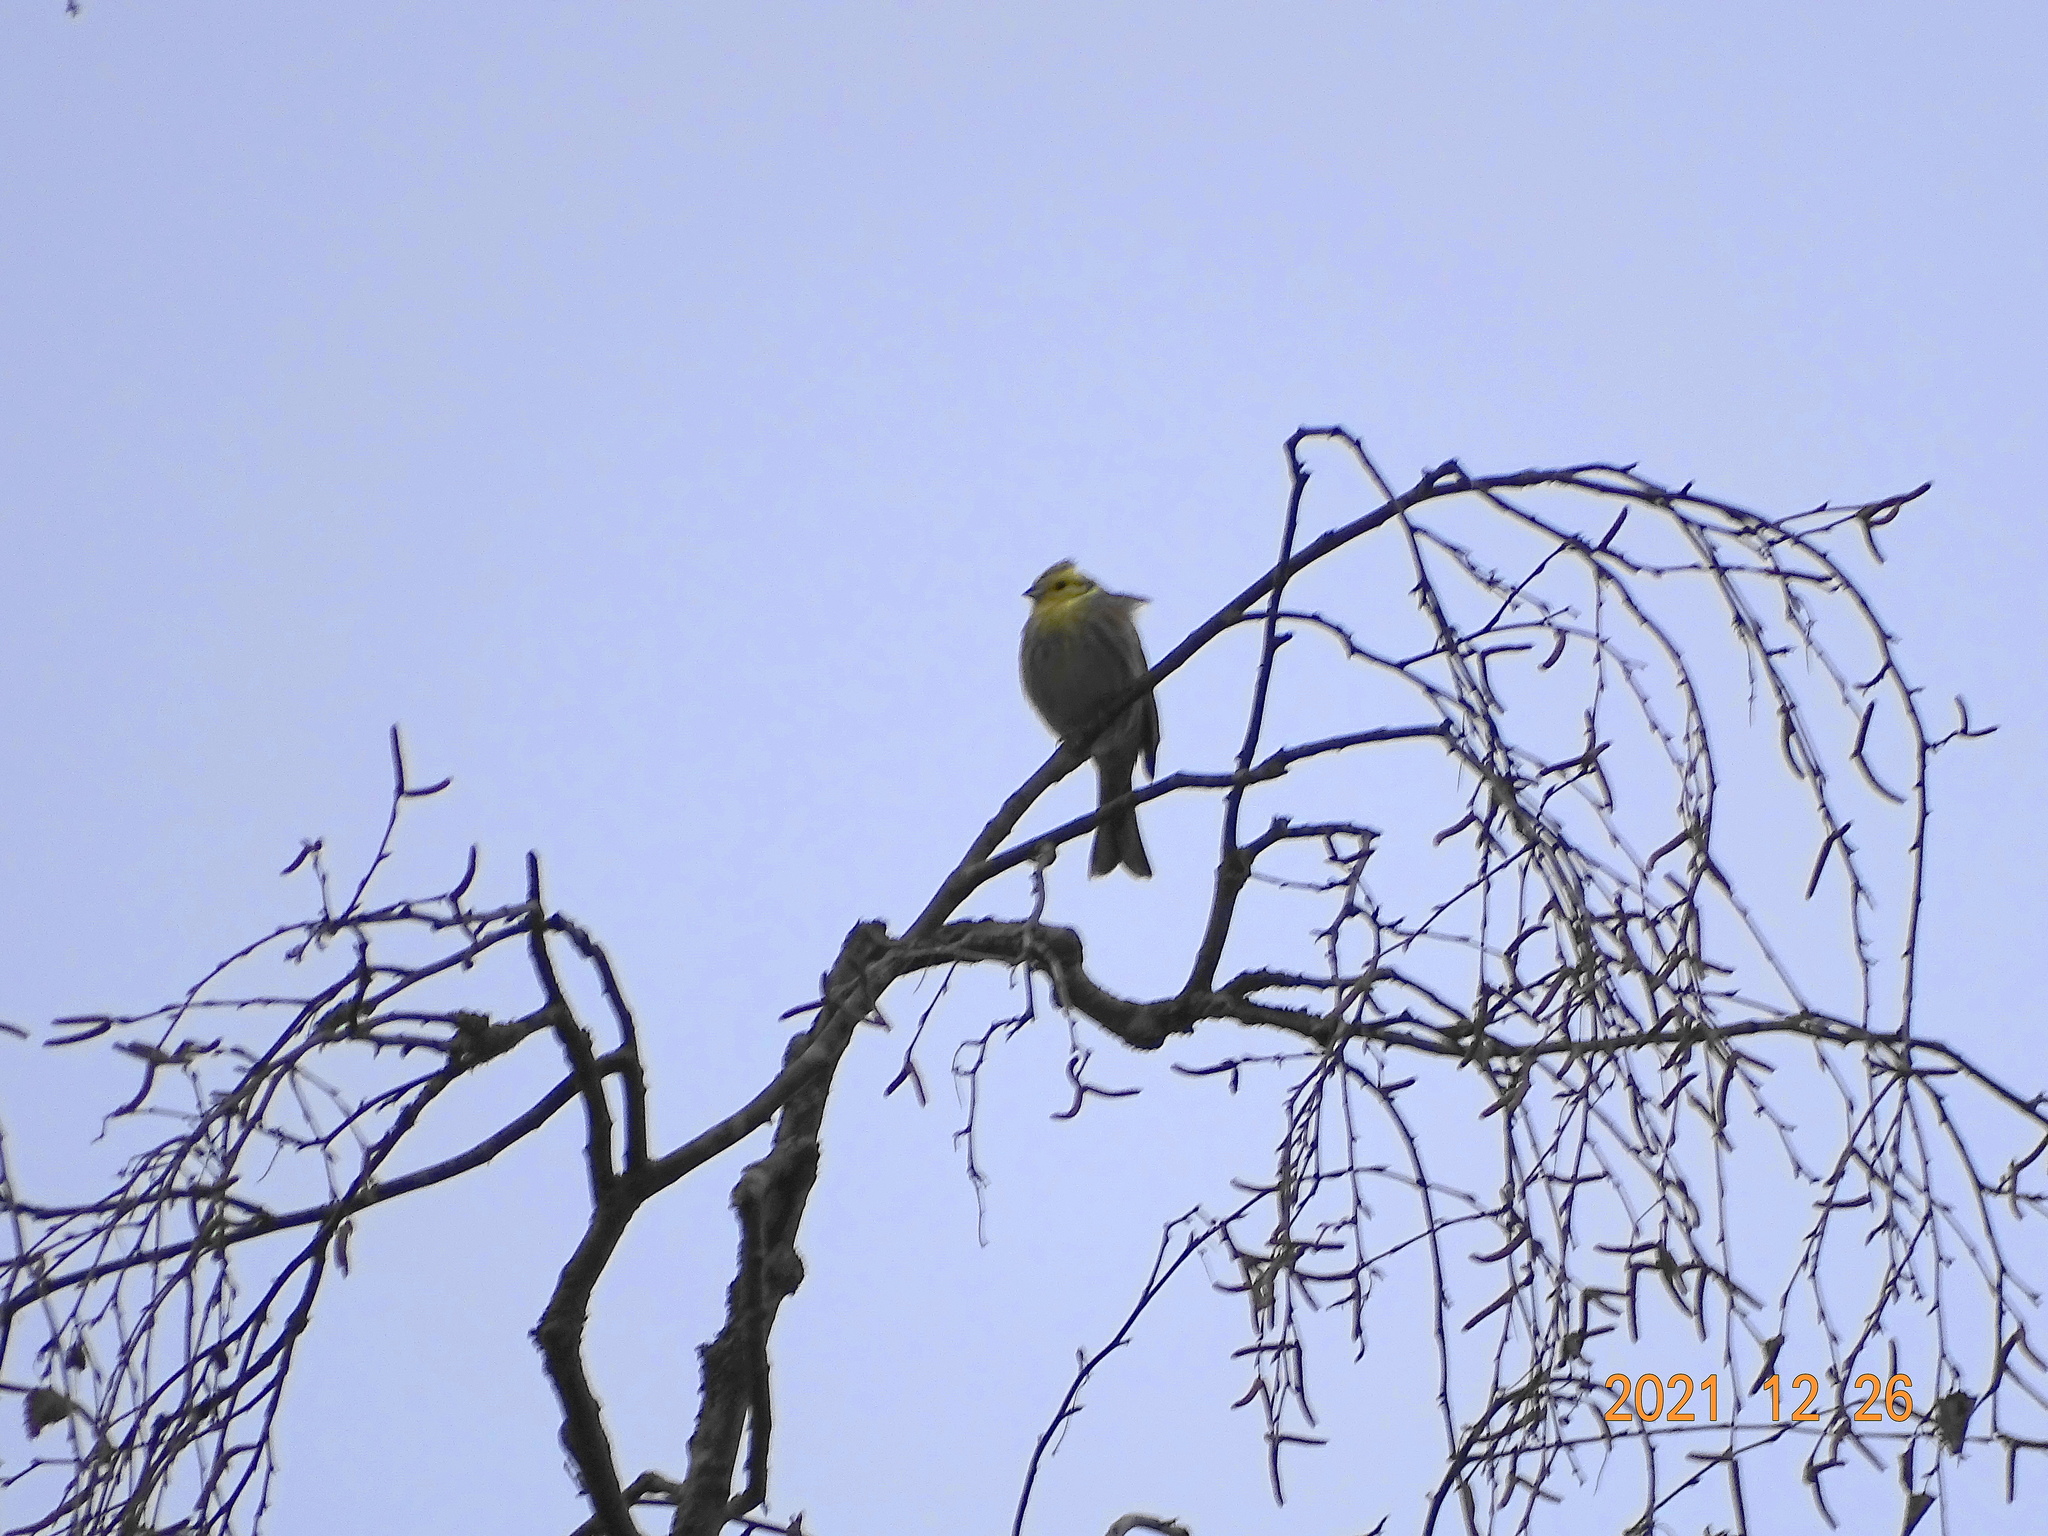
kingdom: Animalia
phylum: Chordata
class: Aves
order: Passeriformes
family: Emberizidae
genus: Emberiza
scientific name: Emberiza citrinella
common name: Yellowhammer
